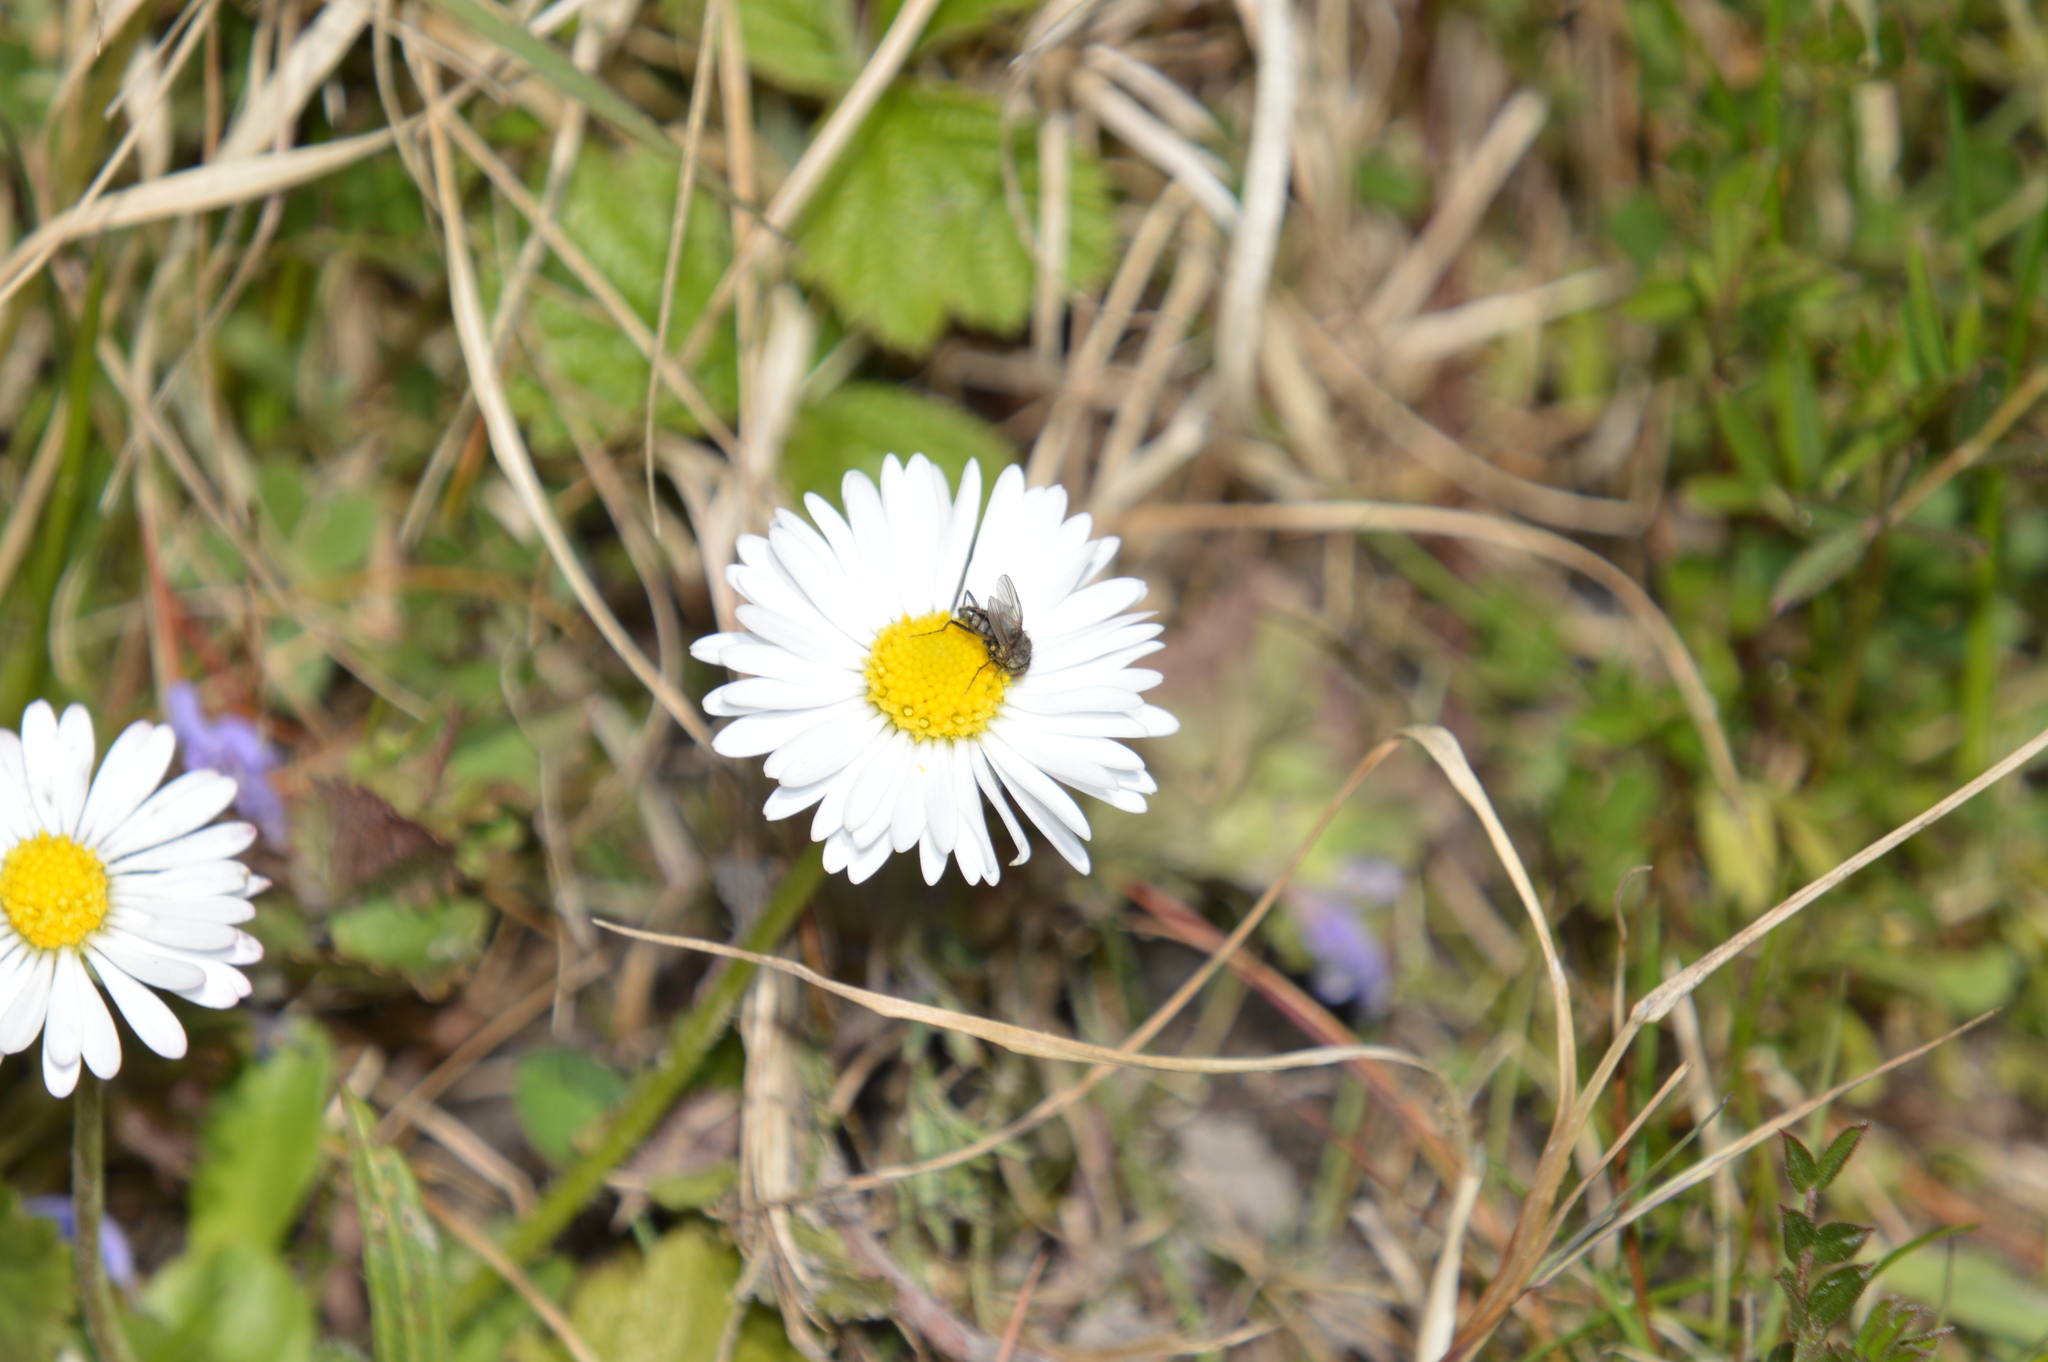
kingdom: Plantae
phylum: Tracheophyta
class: Magnoliopsida
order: Asterales
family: Asteraceae
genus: Bellis
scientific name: Bellis perennis
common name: Lawndaisy
